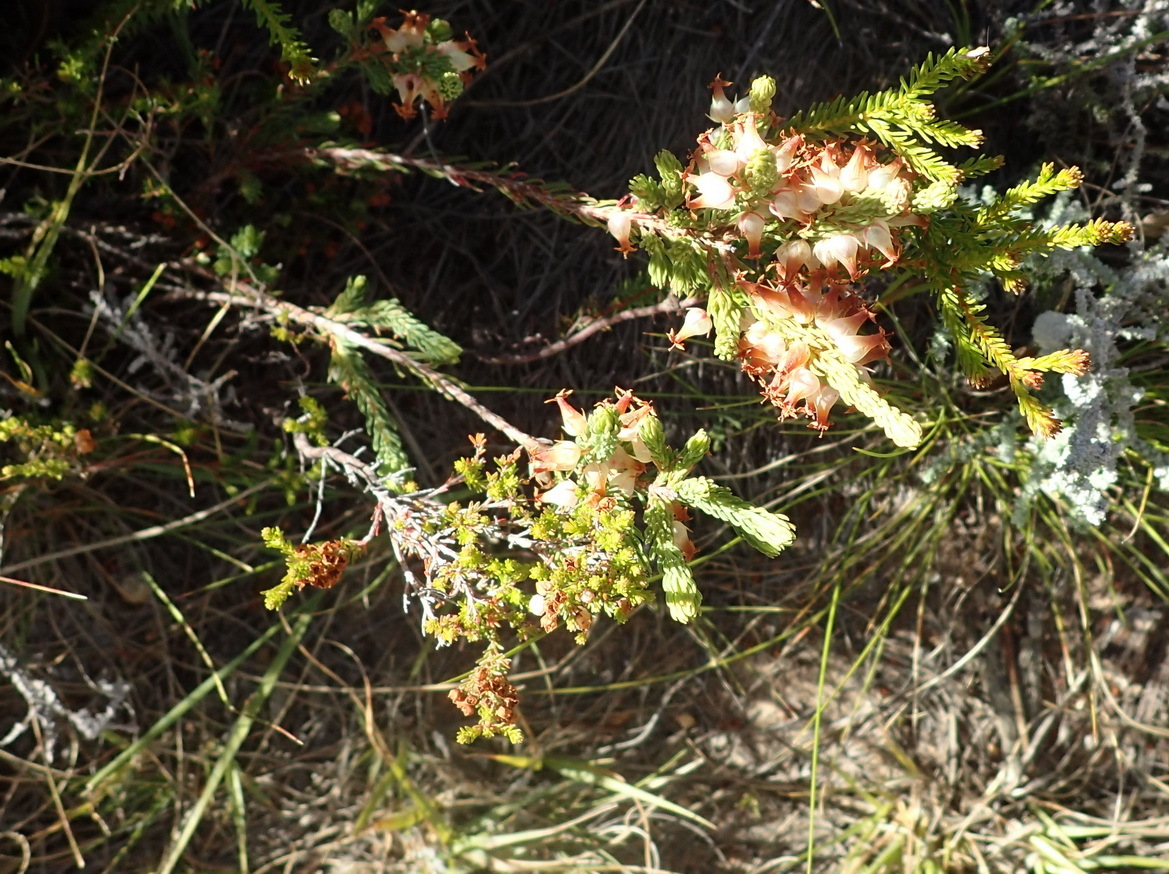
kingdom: Plantae
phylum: Tracheophyta
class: Magnoliopsida
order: Ericales
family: Ericaceae
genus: Erica
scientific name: Erica albens
